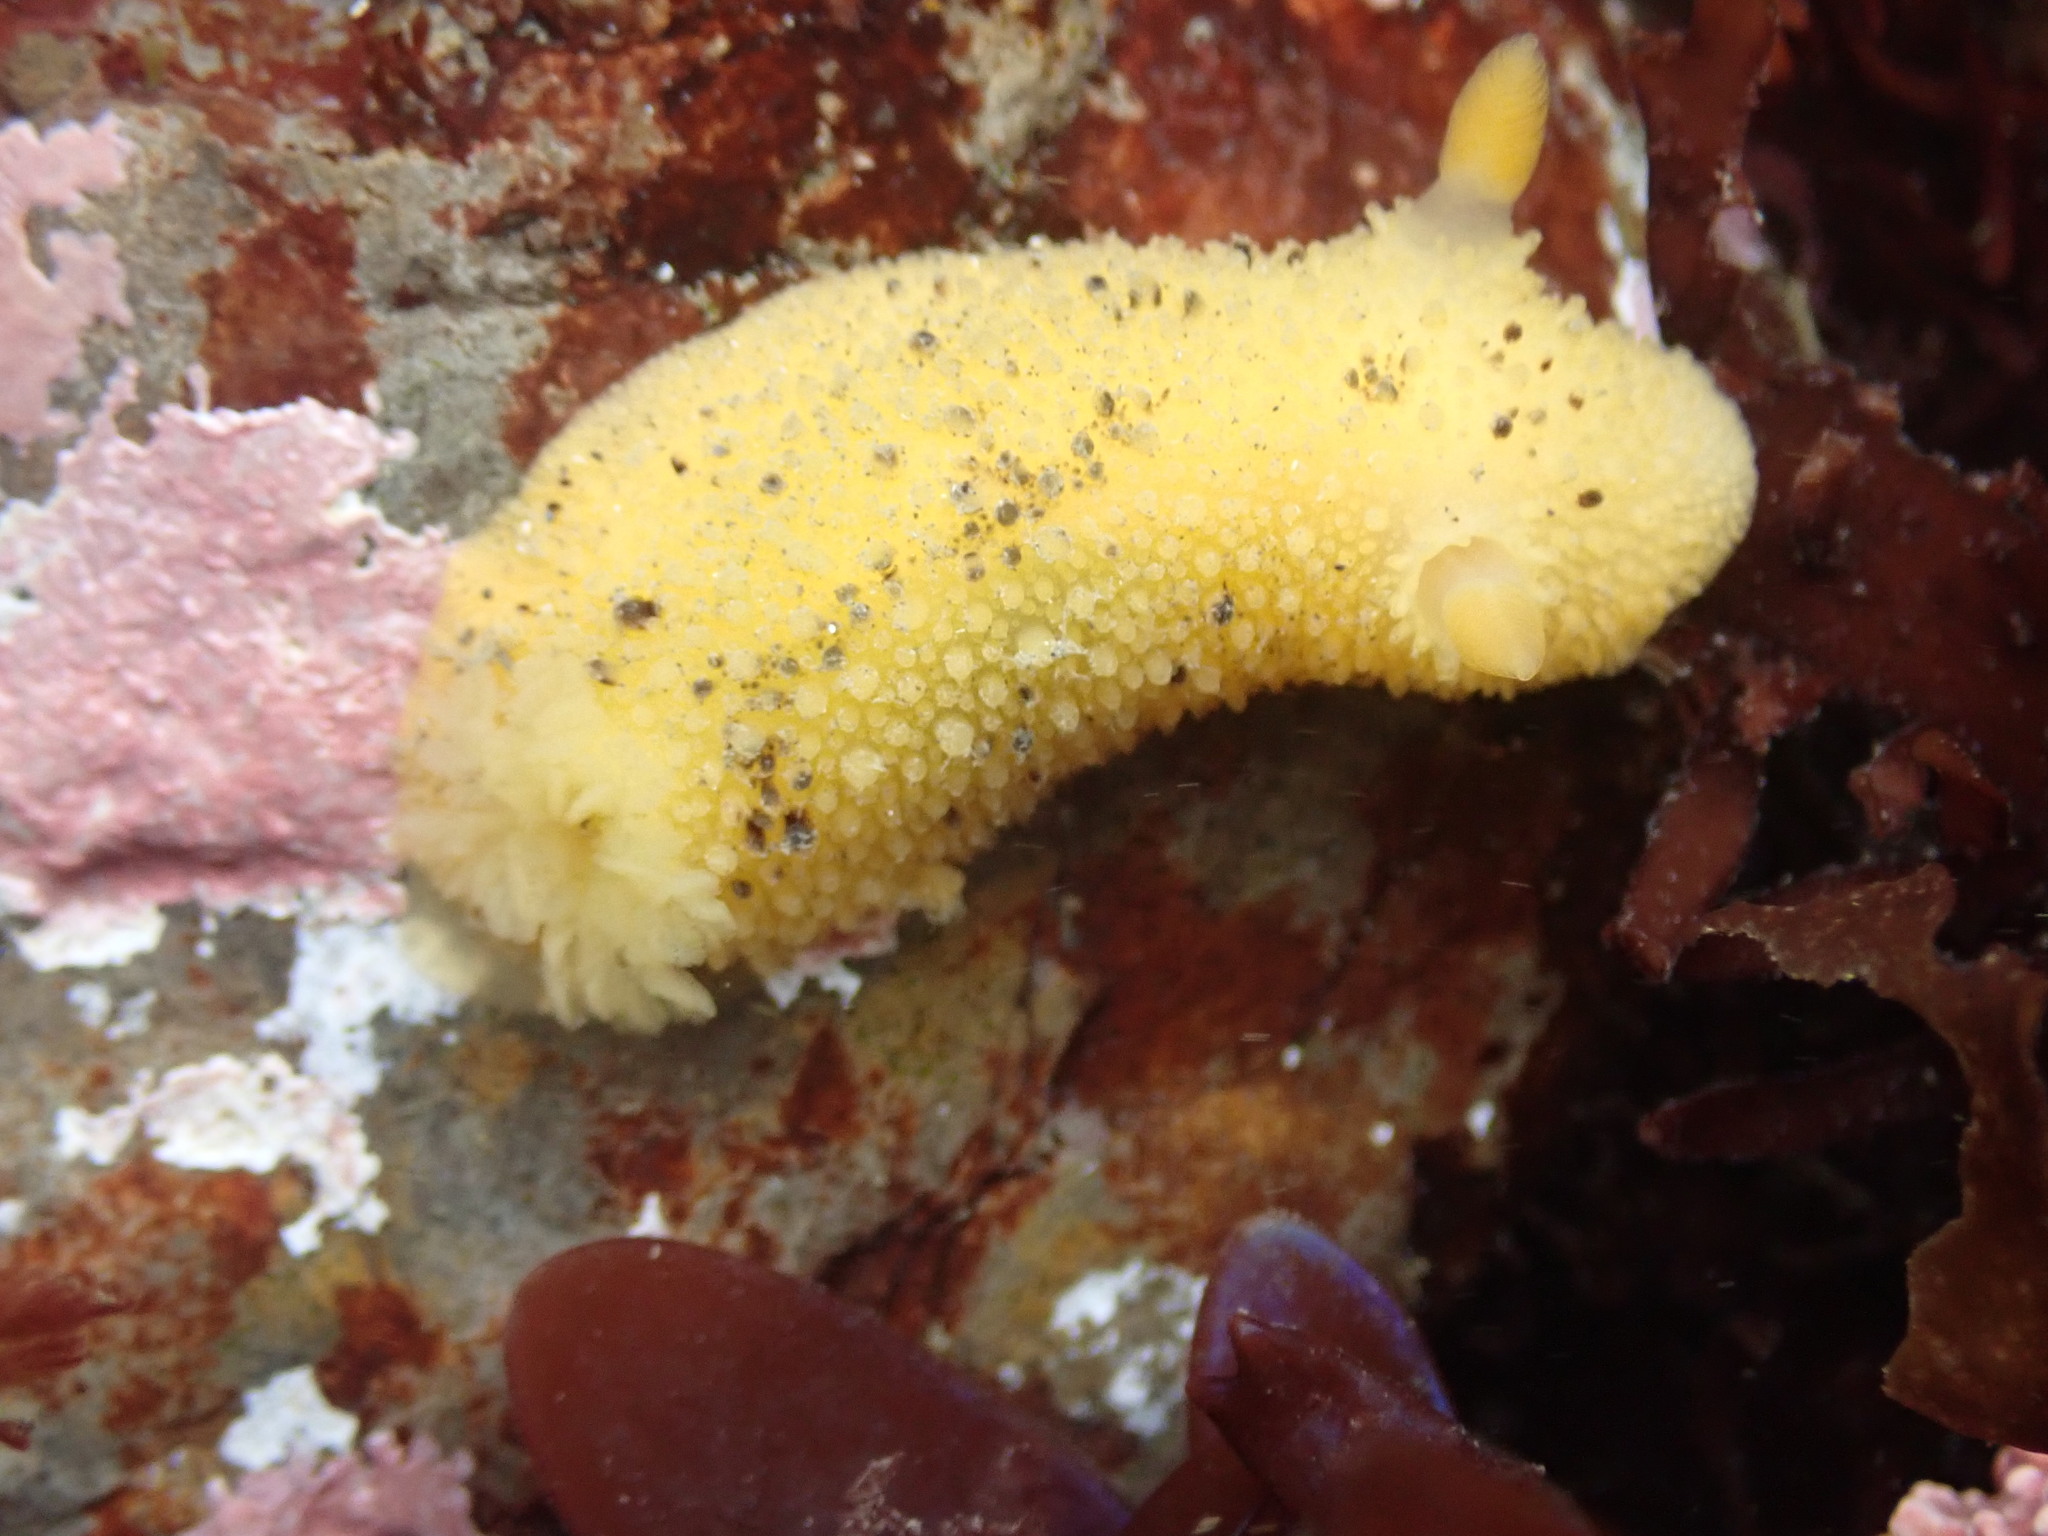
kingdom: Animalia
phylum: Mollusca
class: Gastropoda
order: Nudibranchia
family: Dorididae
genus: Doris
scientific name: Doris montereyensis
